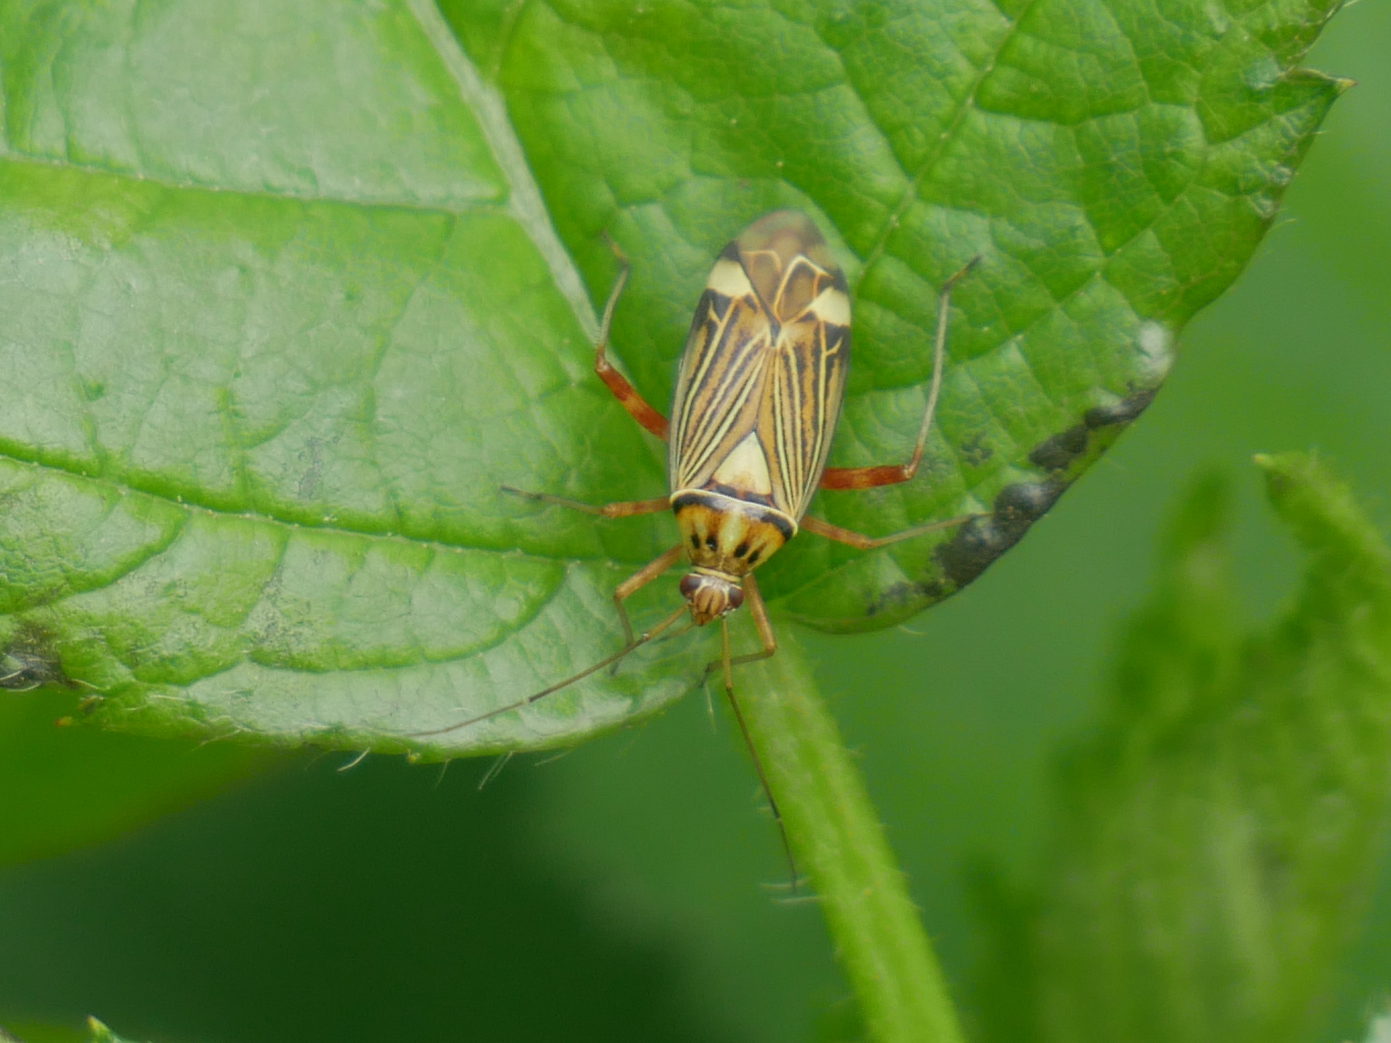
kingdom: Animalia
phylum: Arthropoda
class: Insecta
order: Hemiptera
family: Miridae
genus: Rhabdomiris
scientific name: Rhabdomiris striatellus
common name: Plant bug
